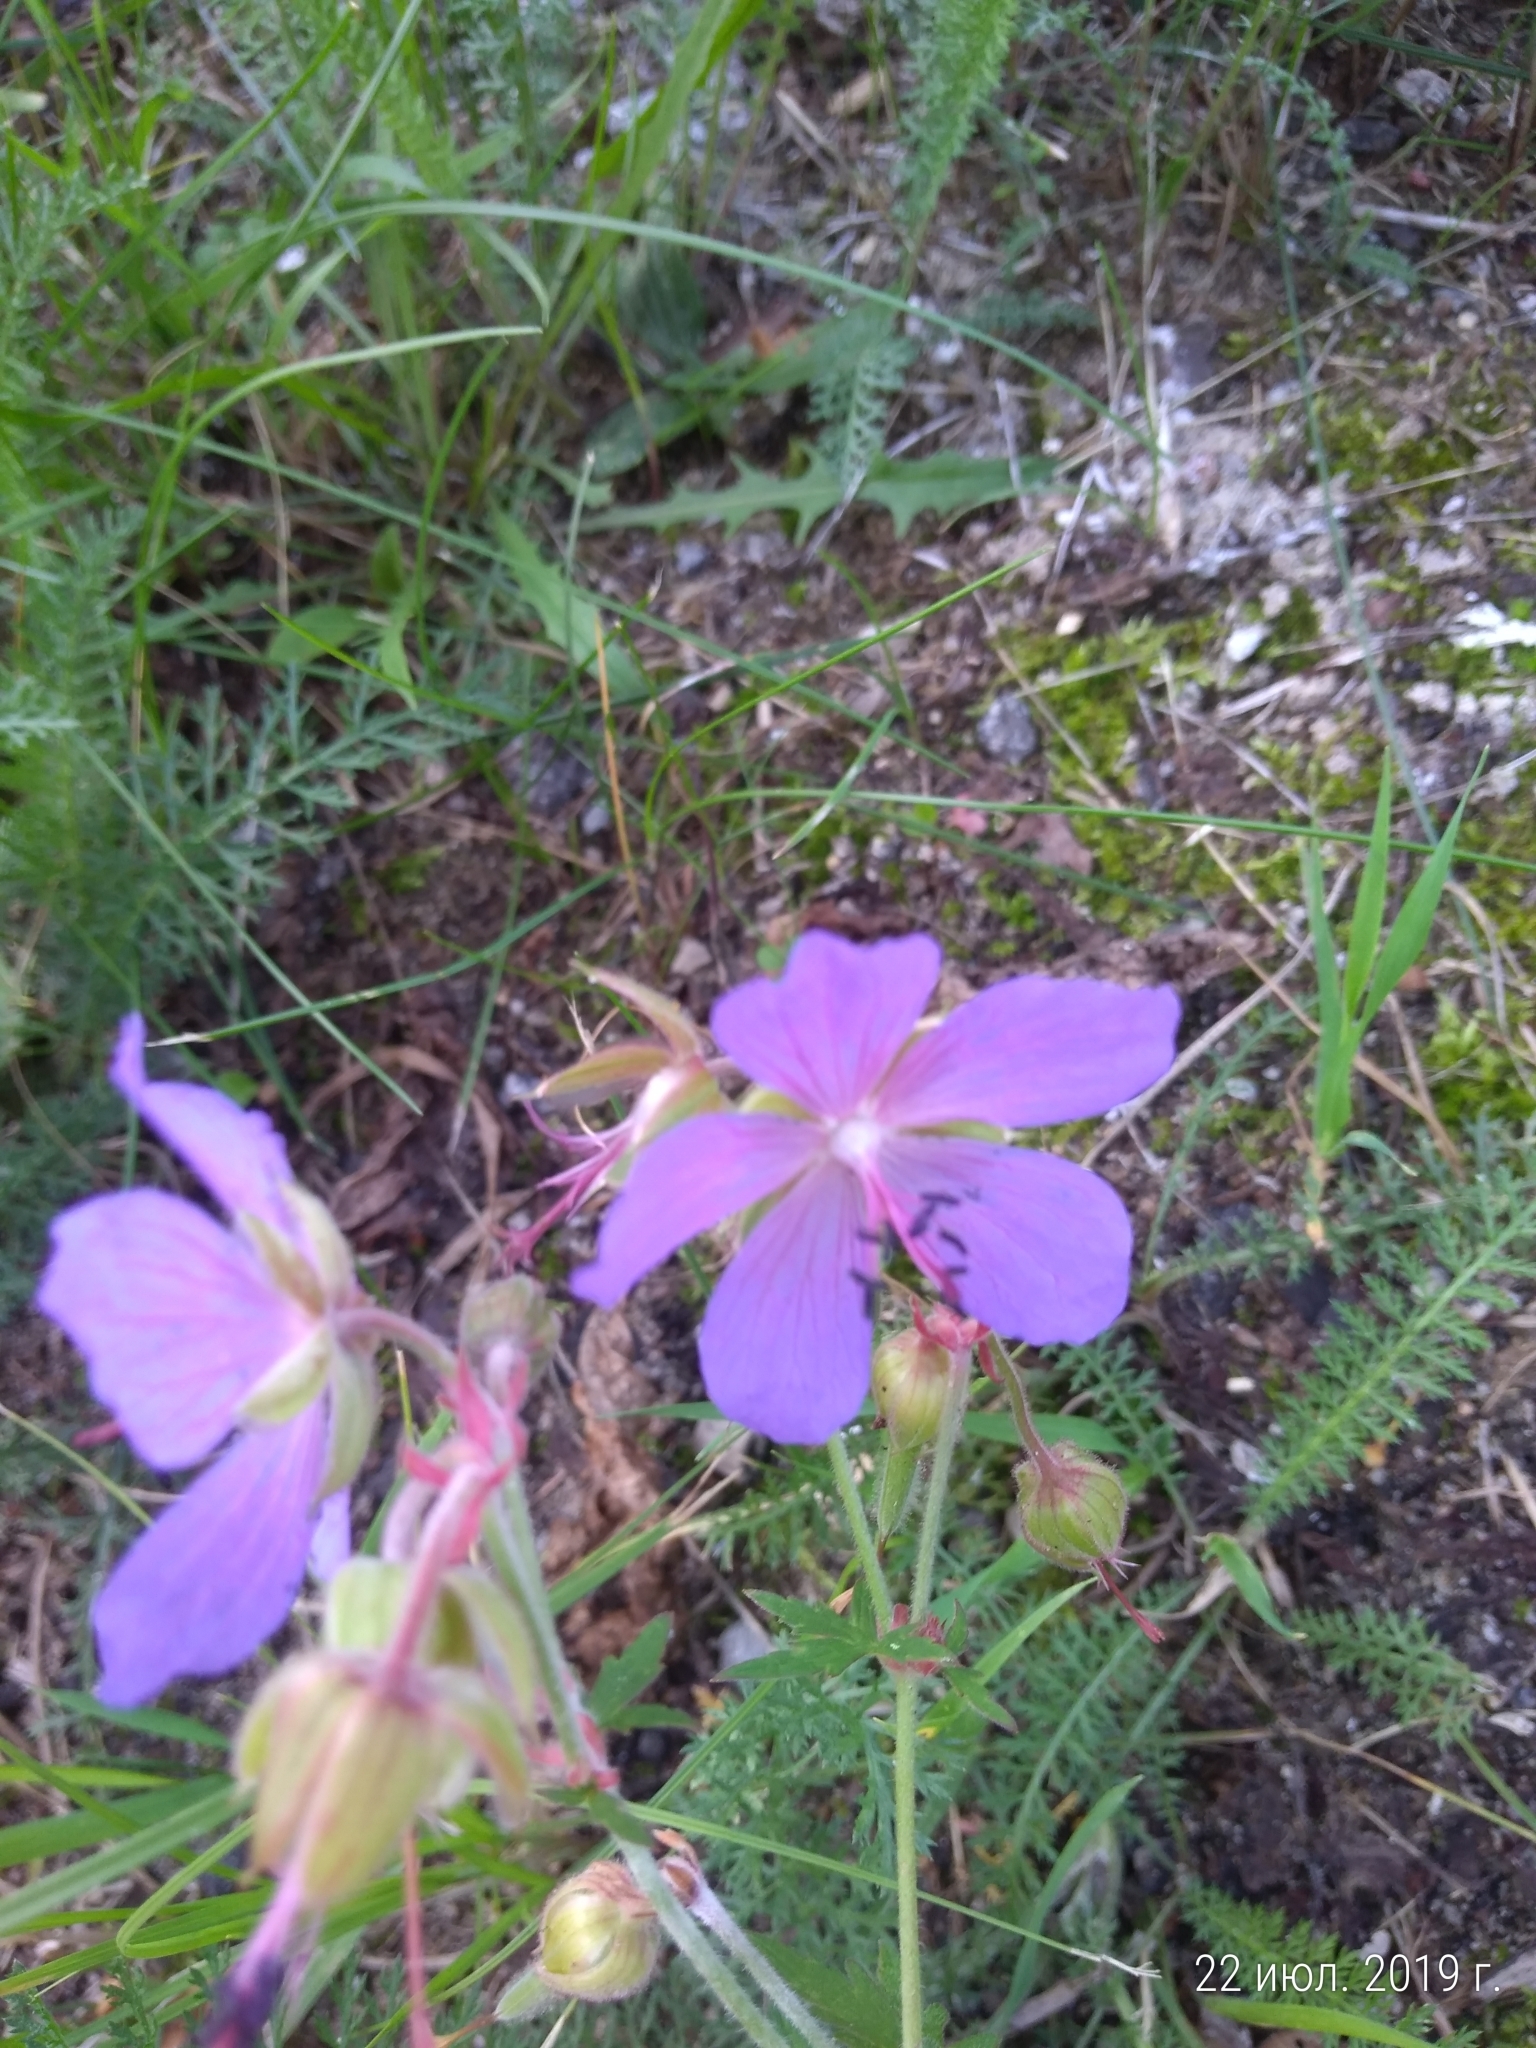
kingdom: Plantae
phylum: Tracheophyta
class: Magnoliopsida
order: Geraniales
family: Geraniaceae
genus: Geranium
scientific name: Geranium pratense
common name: Meadow crane's-bill
